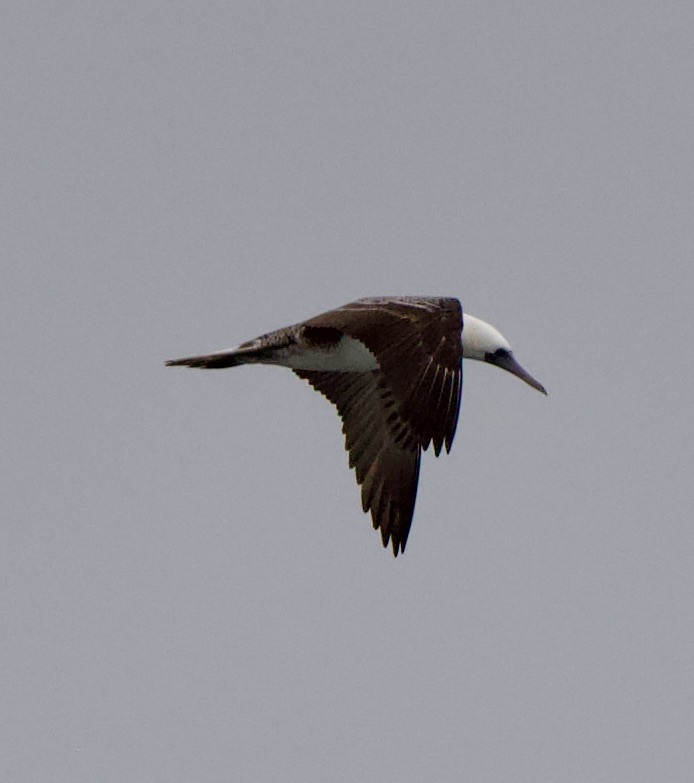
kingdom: Animalia
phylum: Chordata
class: Aves
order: Suliformes
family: Sulidae
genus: Sula
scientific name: Sula variegata
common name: Peruvian booby
